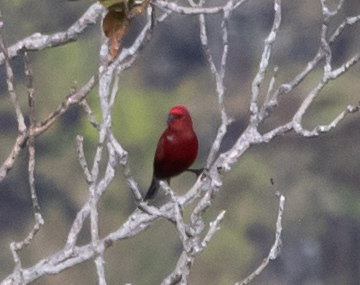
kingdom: Animalia
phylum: Chordata
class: Aves
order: Passeriformes
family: Fringillidae
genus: Himatione
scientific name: Himatione sanguinea
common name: Apapane
